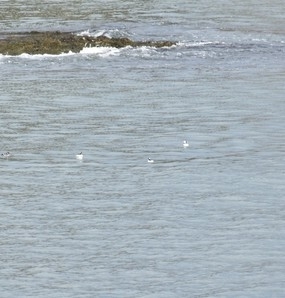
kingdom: Animalia
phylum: Chordata
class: Aves
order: Anseriformes
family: Anatidae
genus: Bucephala
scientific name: Bucephala albeola
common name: Bufflehead
